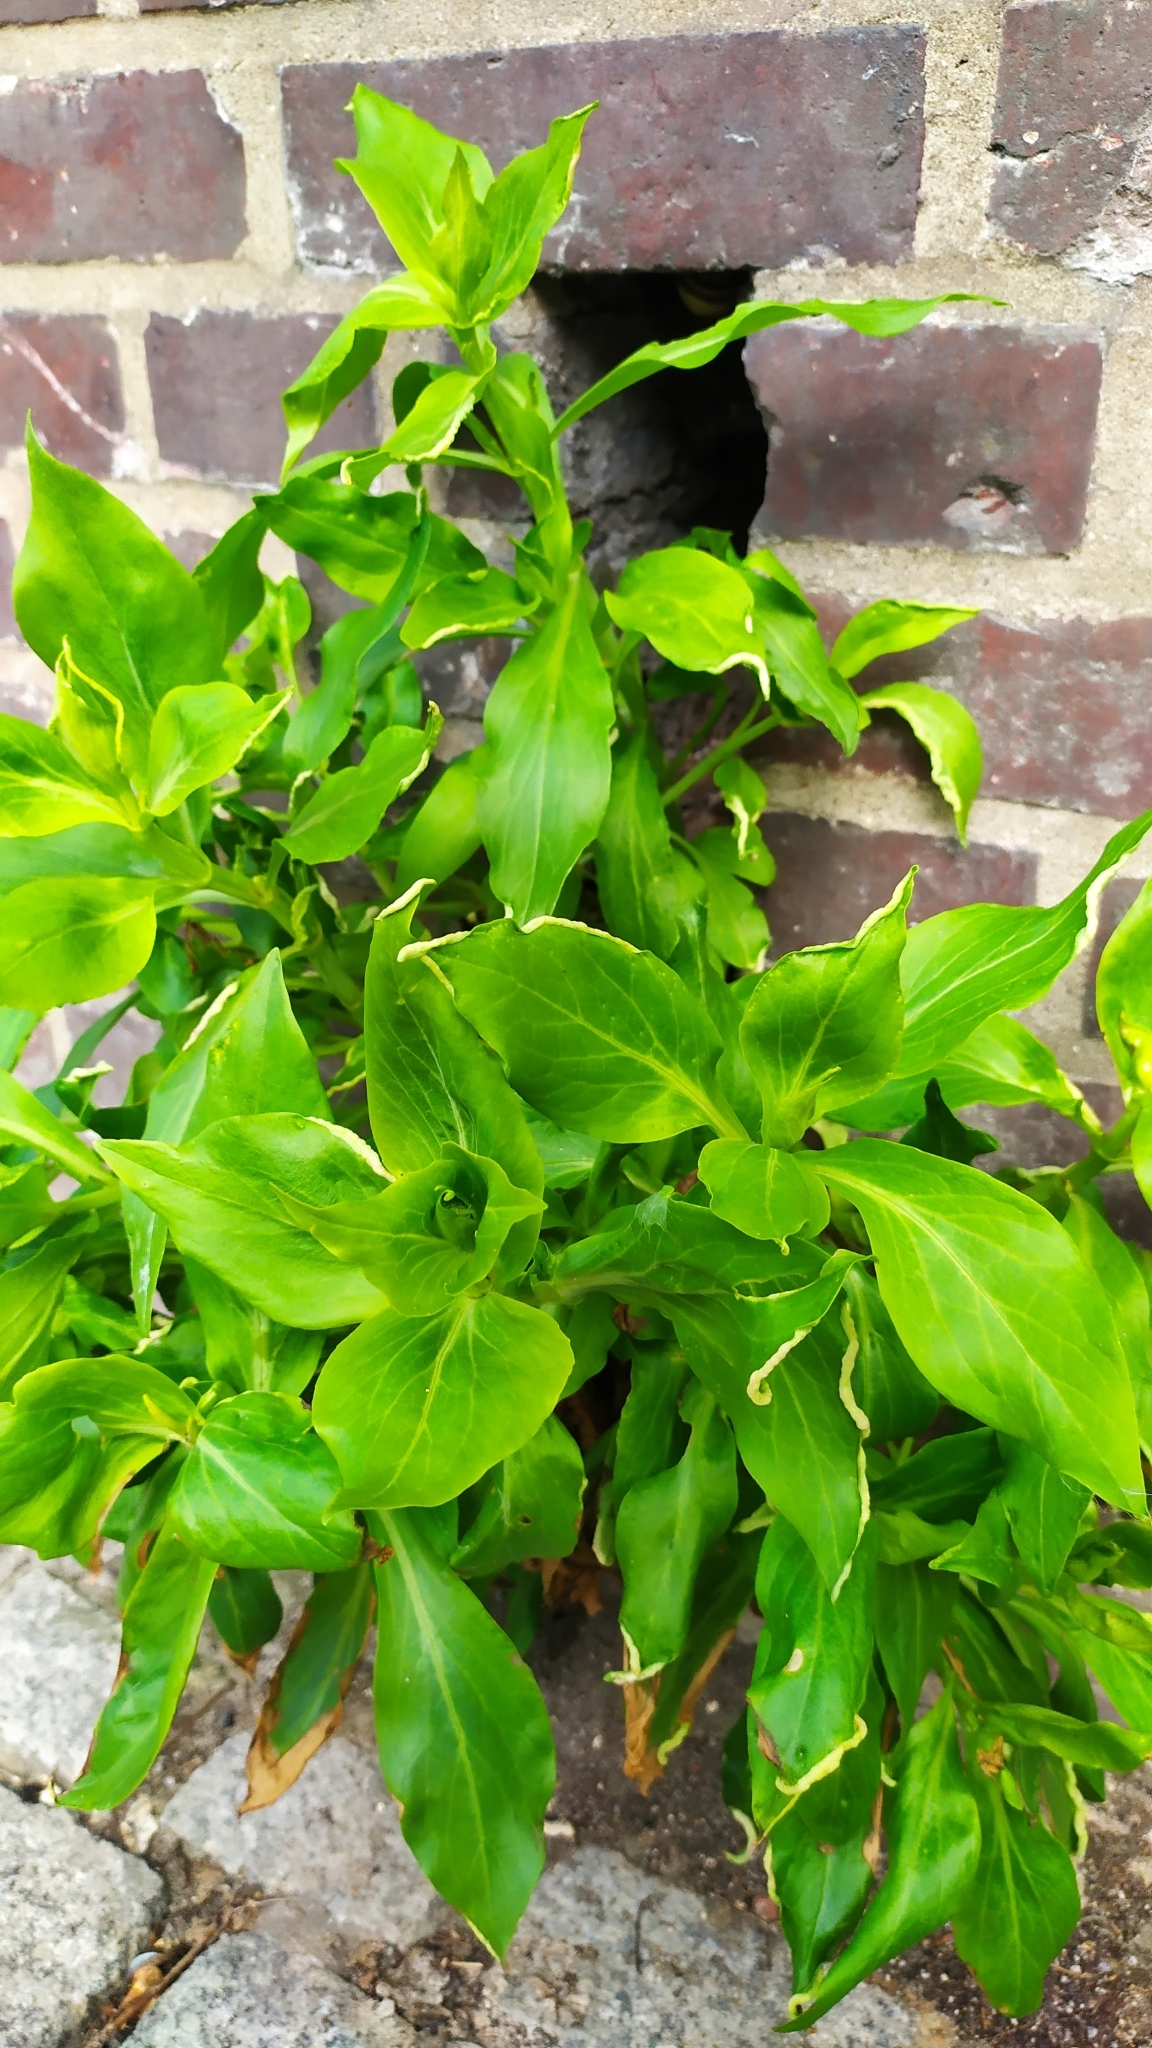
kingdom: Plantae
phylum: Tracheophyta
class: Magnoliopsida
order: Dipsacales
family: Caprifoliaceae
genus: Centranthus
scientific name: Centranthus ruber
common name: Red valerian
